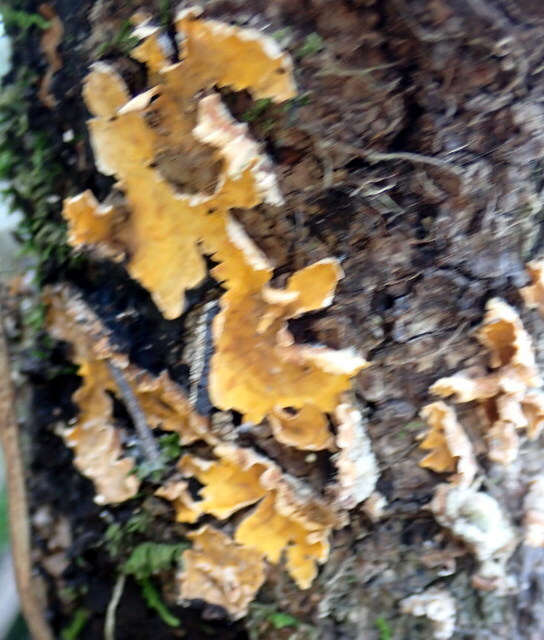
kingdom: Fungi
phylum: Basidiomycota
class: Agaricomycetes
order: Russulales
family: Stereaceae
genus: Stereum
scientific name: Stereum complicatum
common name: Crowded parchment
